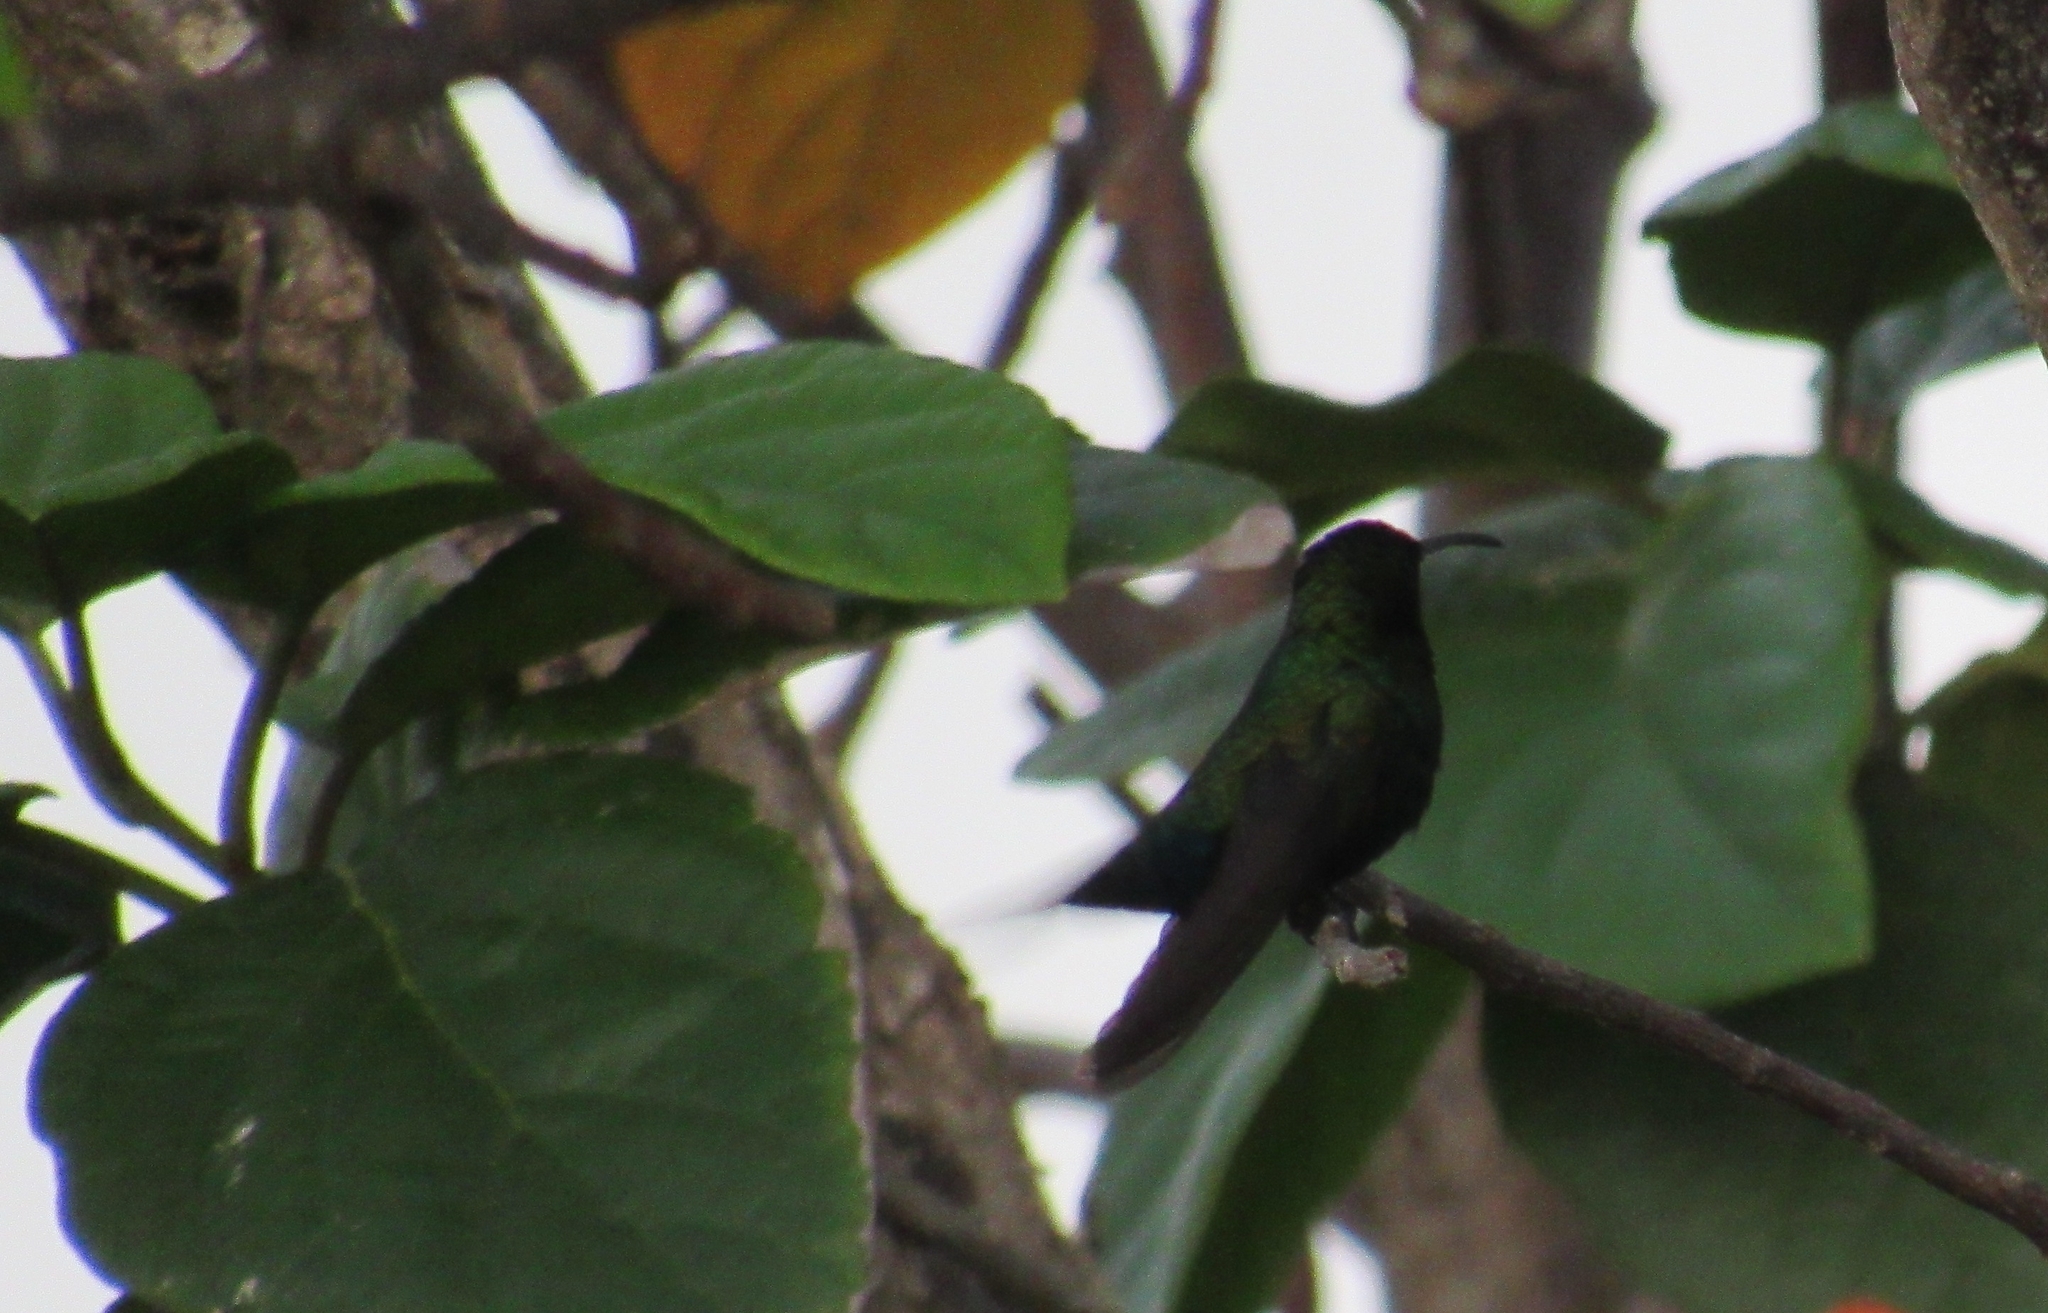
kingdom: Animalia
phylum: Chordata
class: Aves
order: Apodiformes
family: Trochilidae
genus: Eulampis
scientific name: Eulampis holosericeus
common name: Green-throated carib
